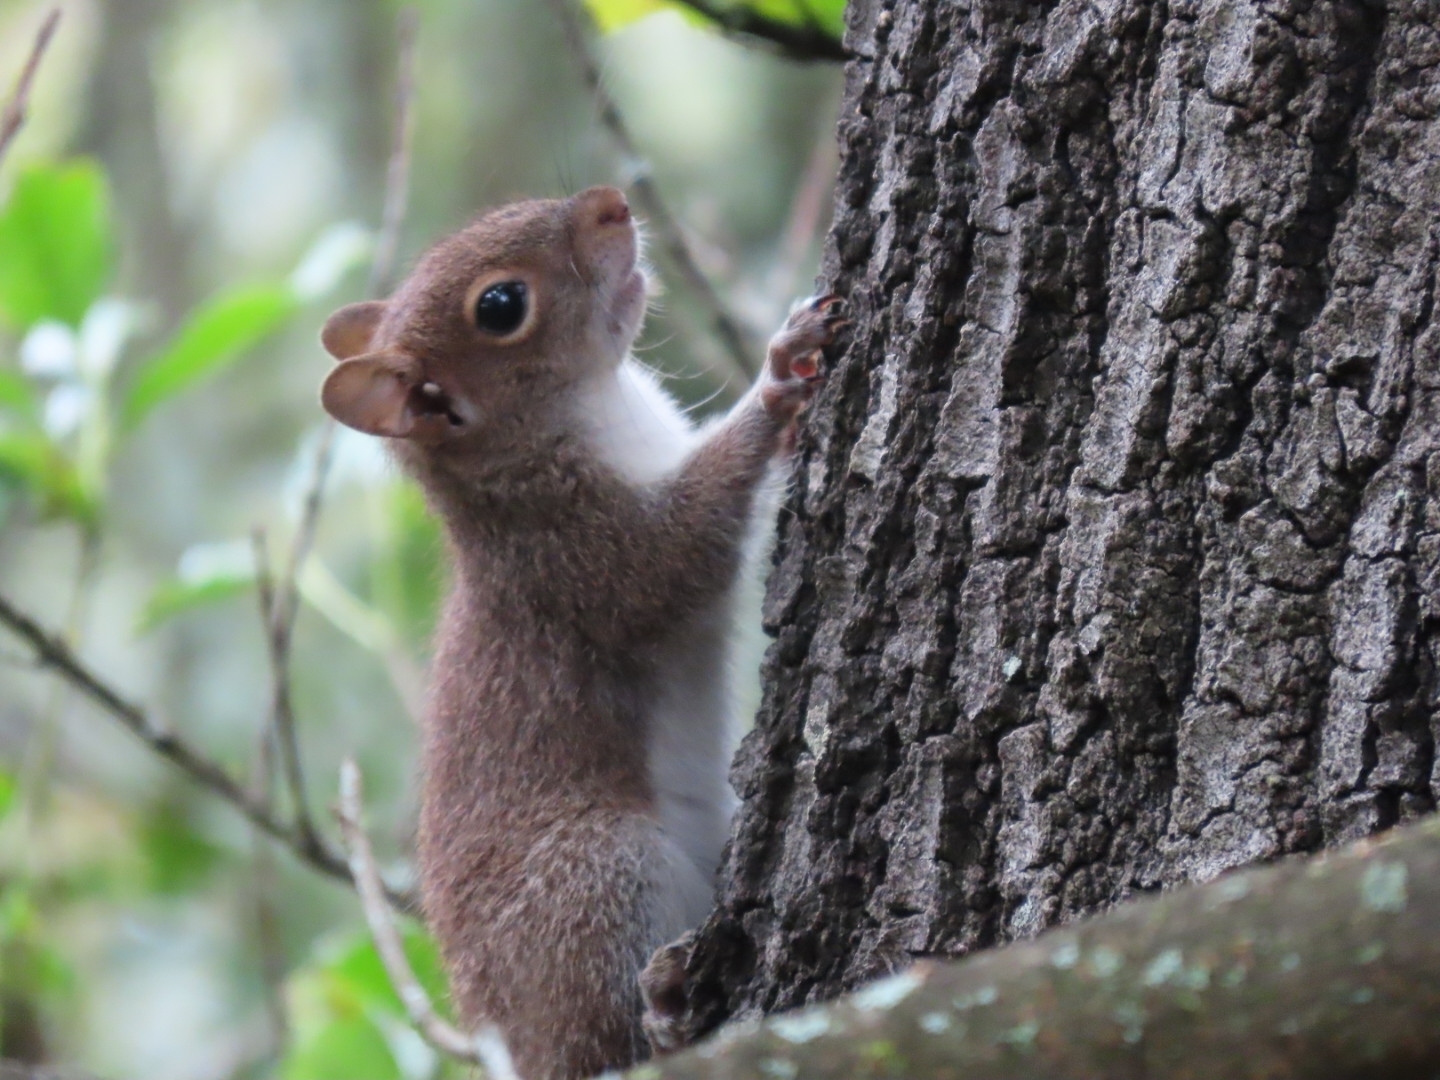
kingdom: Animalia
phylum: Chordata
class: Mammalia
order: Rodentia
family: Sciuridae
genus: Sciurus
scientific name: Sciurus alleni
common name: Allen's squirrel
